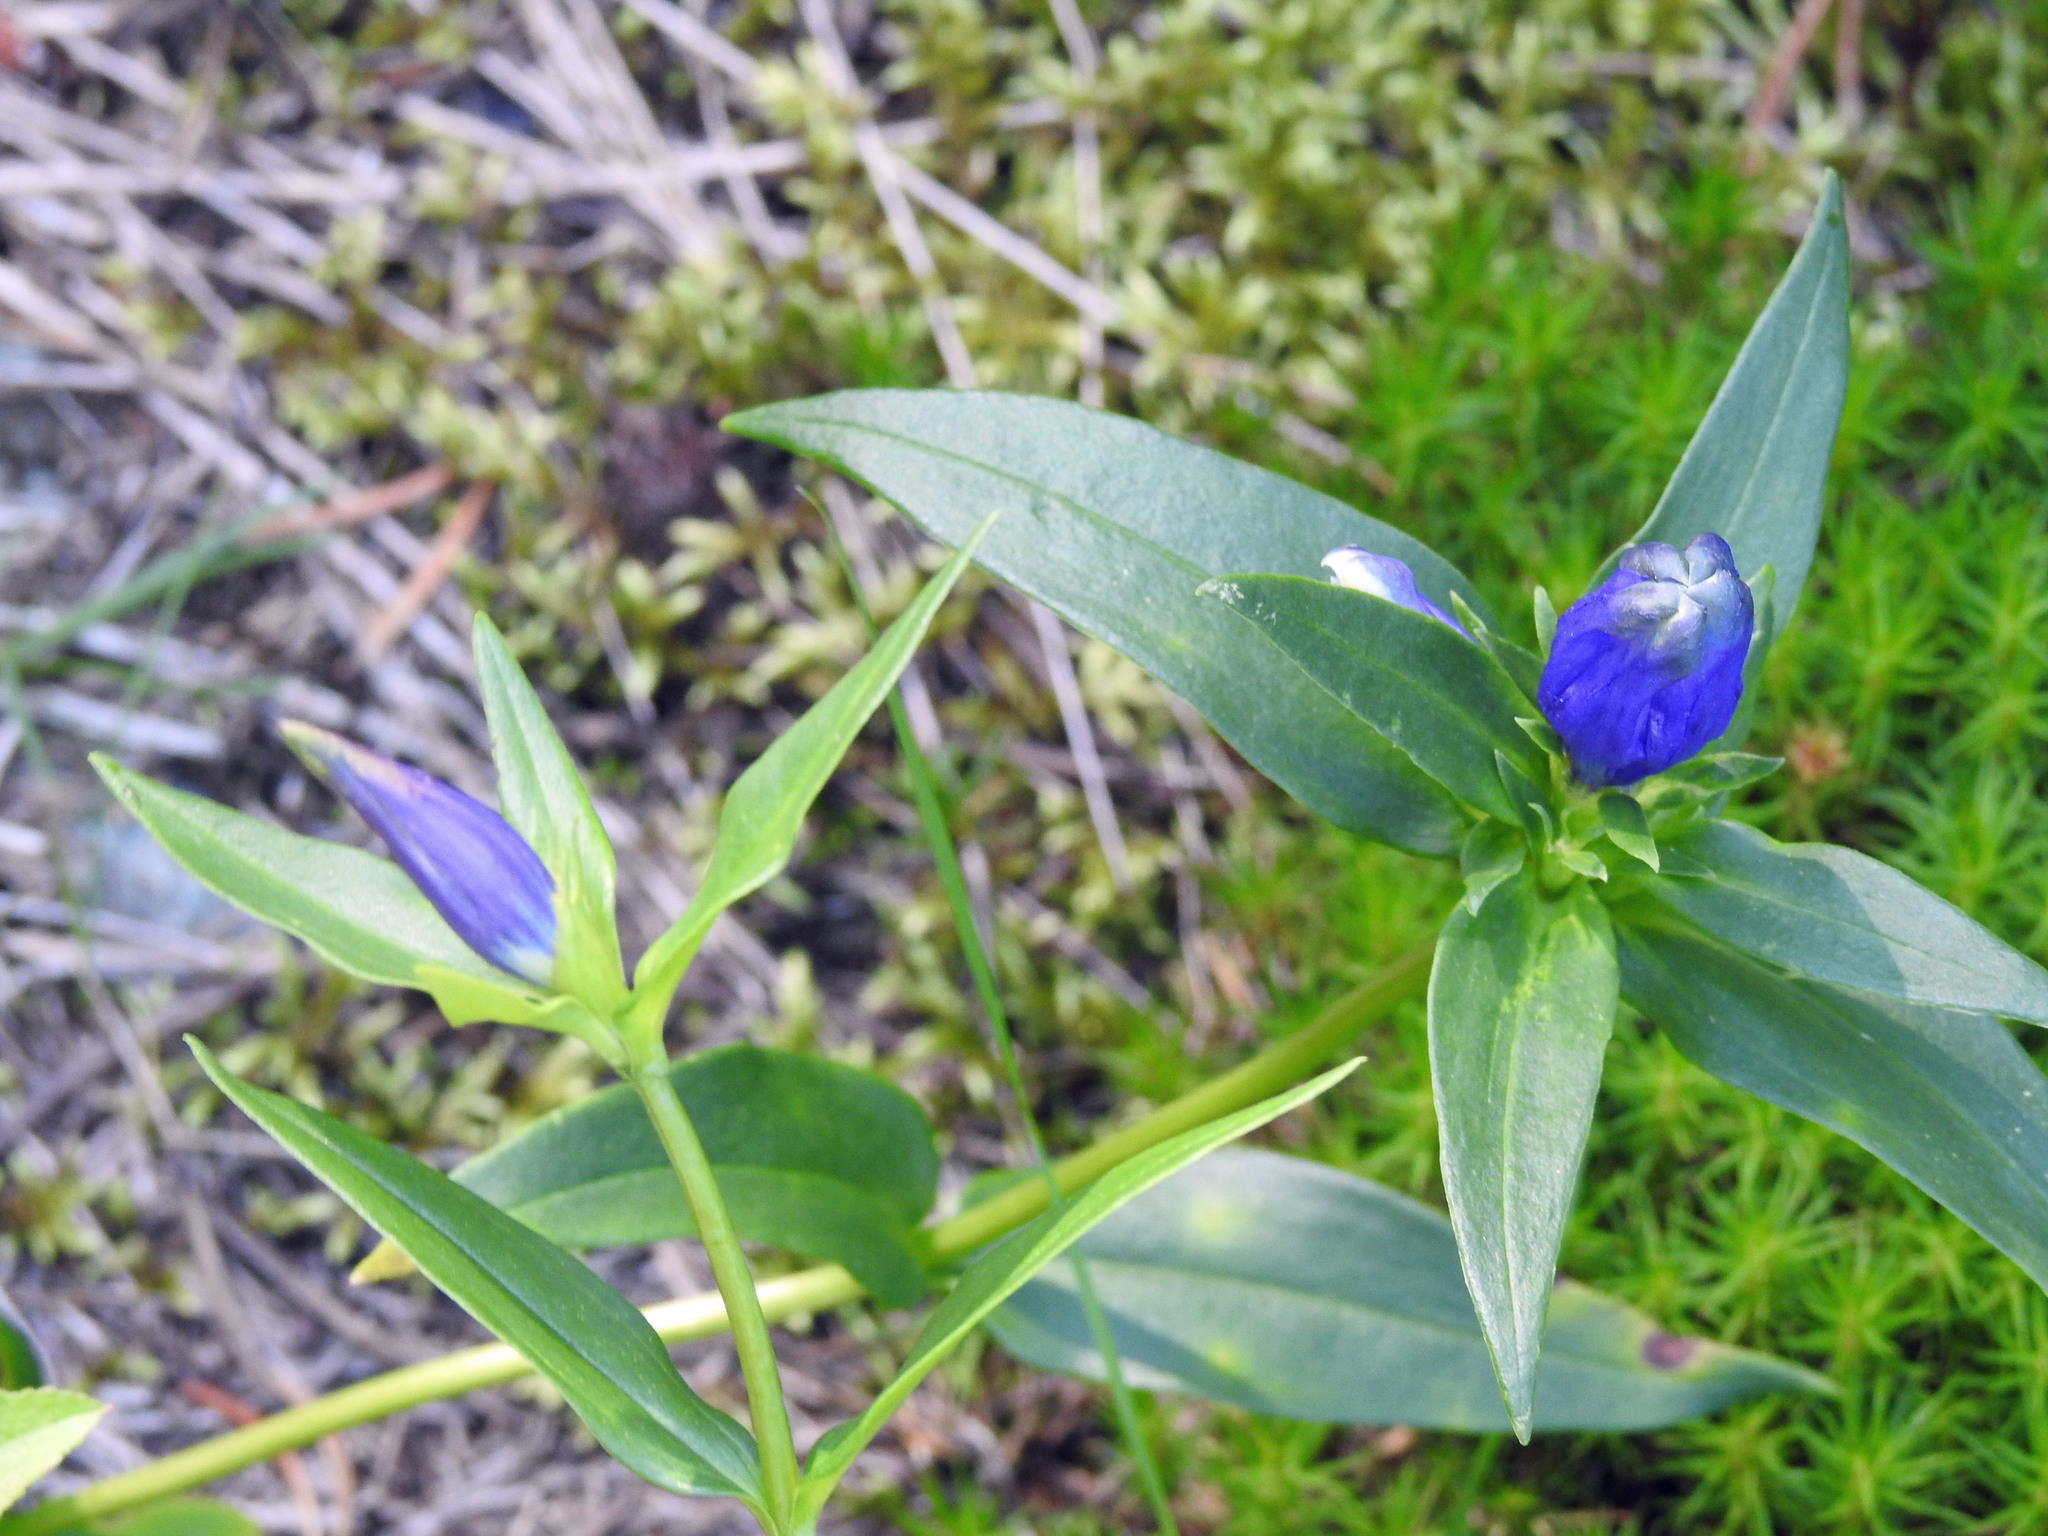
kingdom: Plantae
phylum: Tracheophyta
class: Magnoliopsida
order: Gentianales
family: Gentianaceae
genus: Gentiana
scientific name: Gentiana linearis
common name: Bastard gentian
